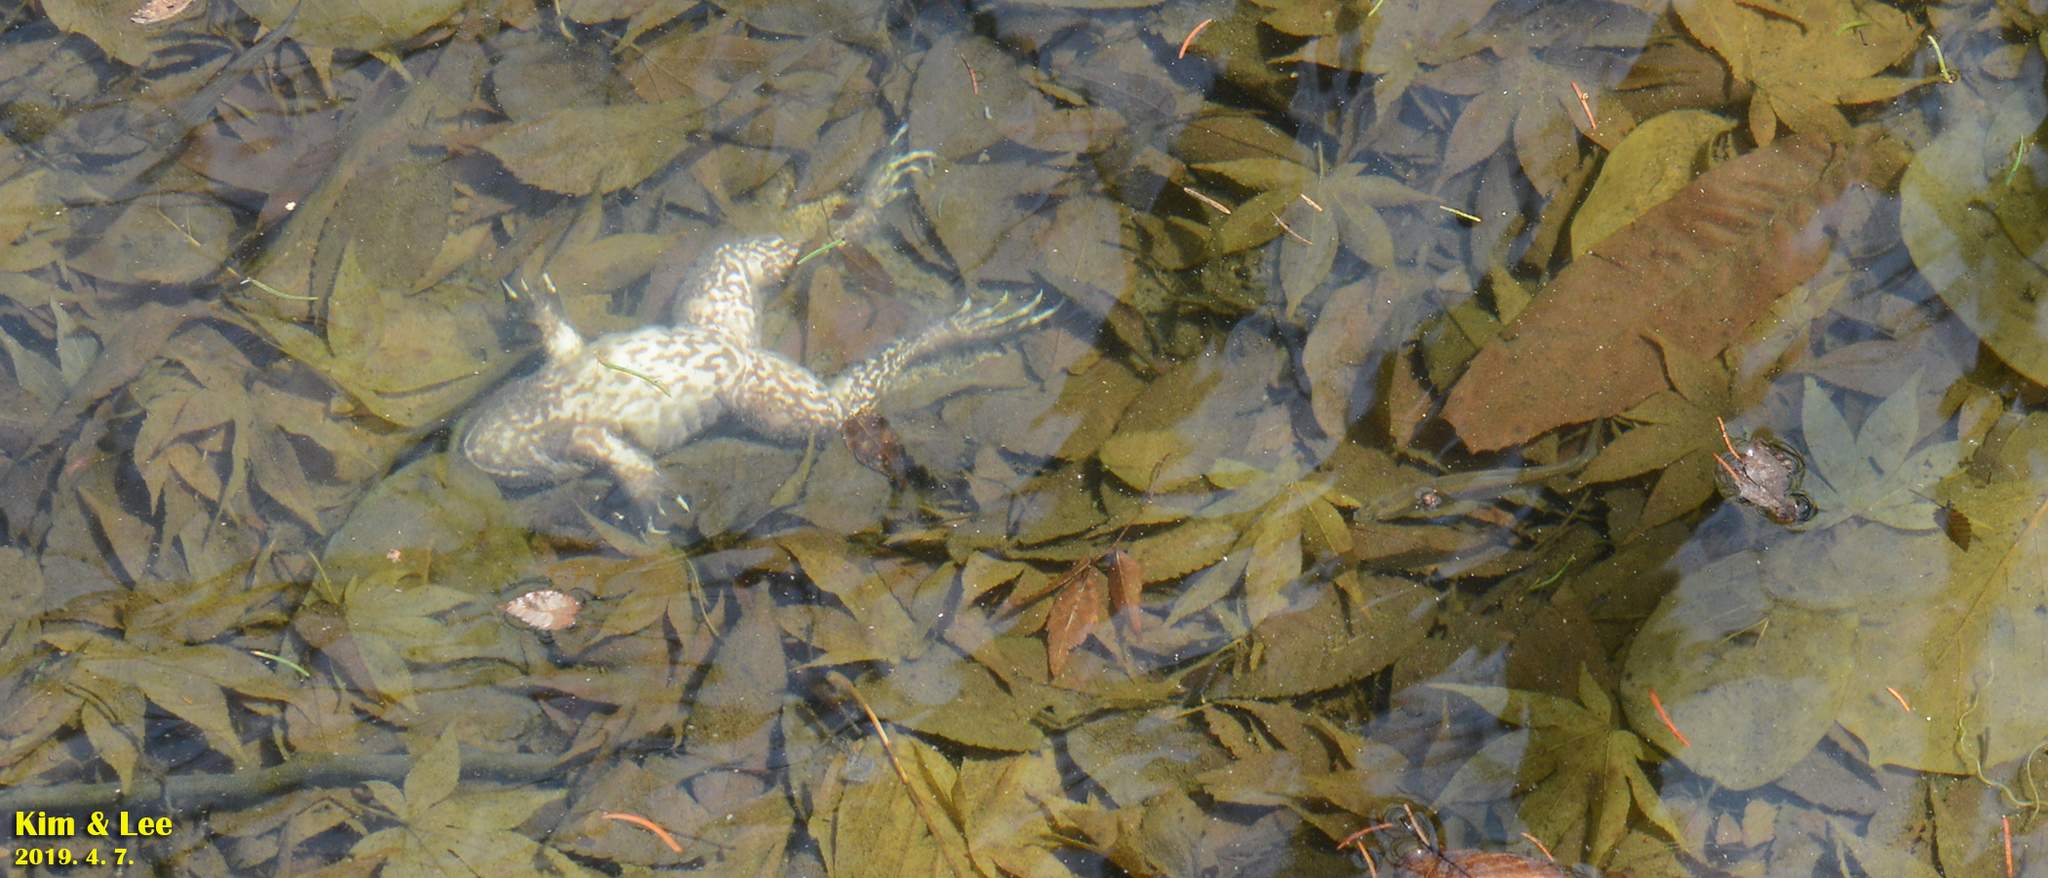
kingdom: Animalia
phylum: Chordata
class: Amphibia
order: Anura
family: Ranidae
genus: Lithobates
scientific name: Lithobates catesbeianus
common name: American bullfrog
